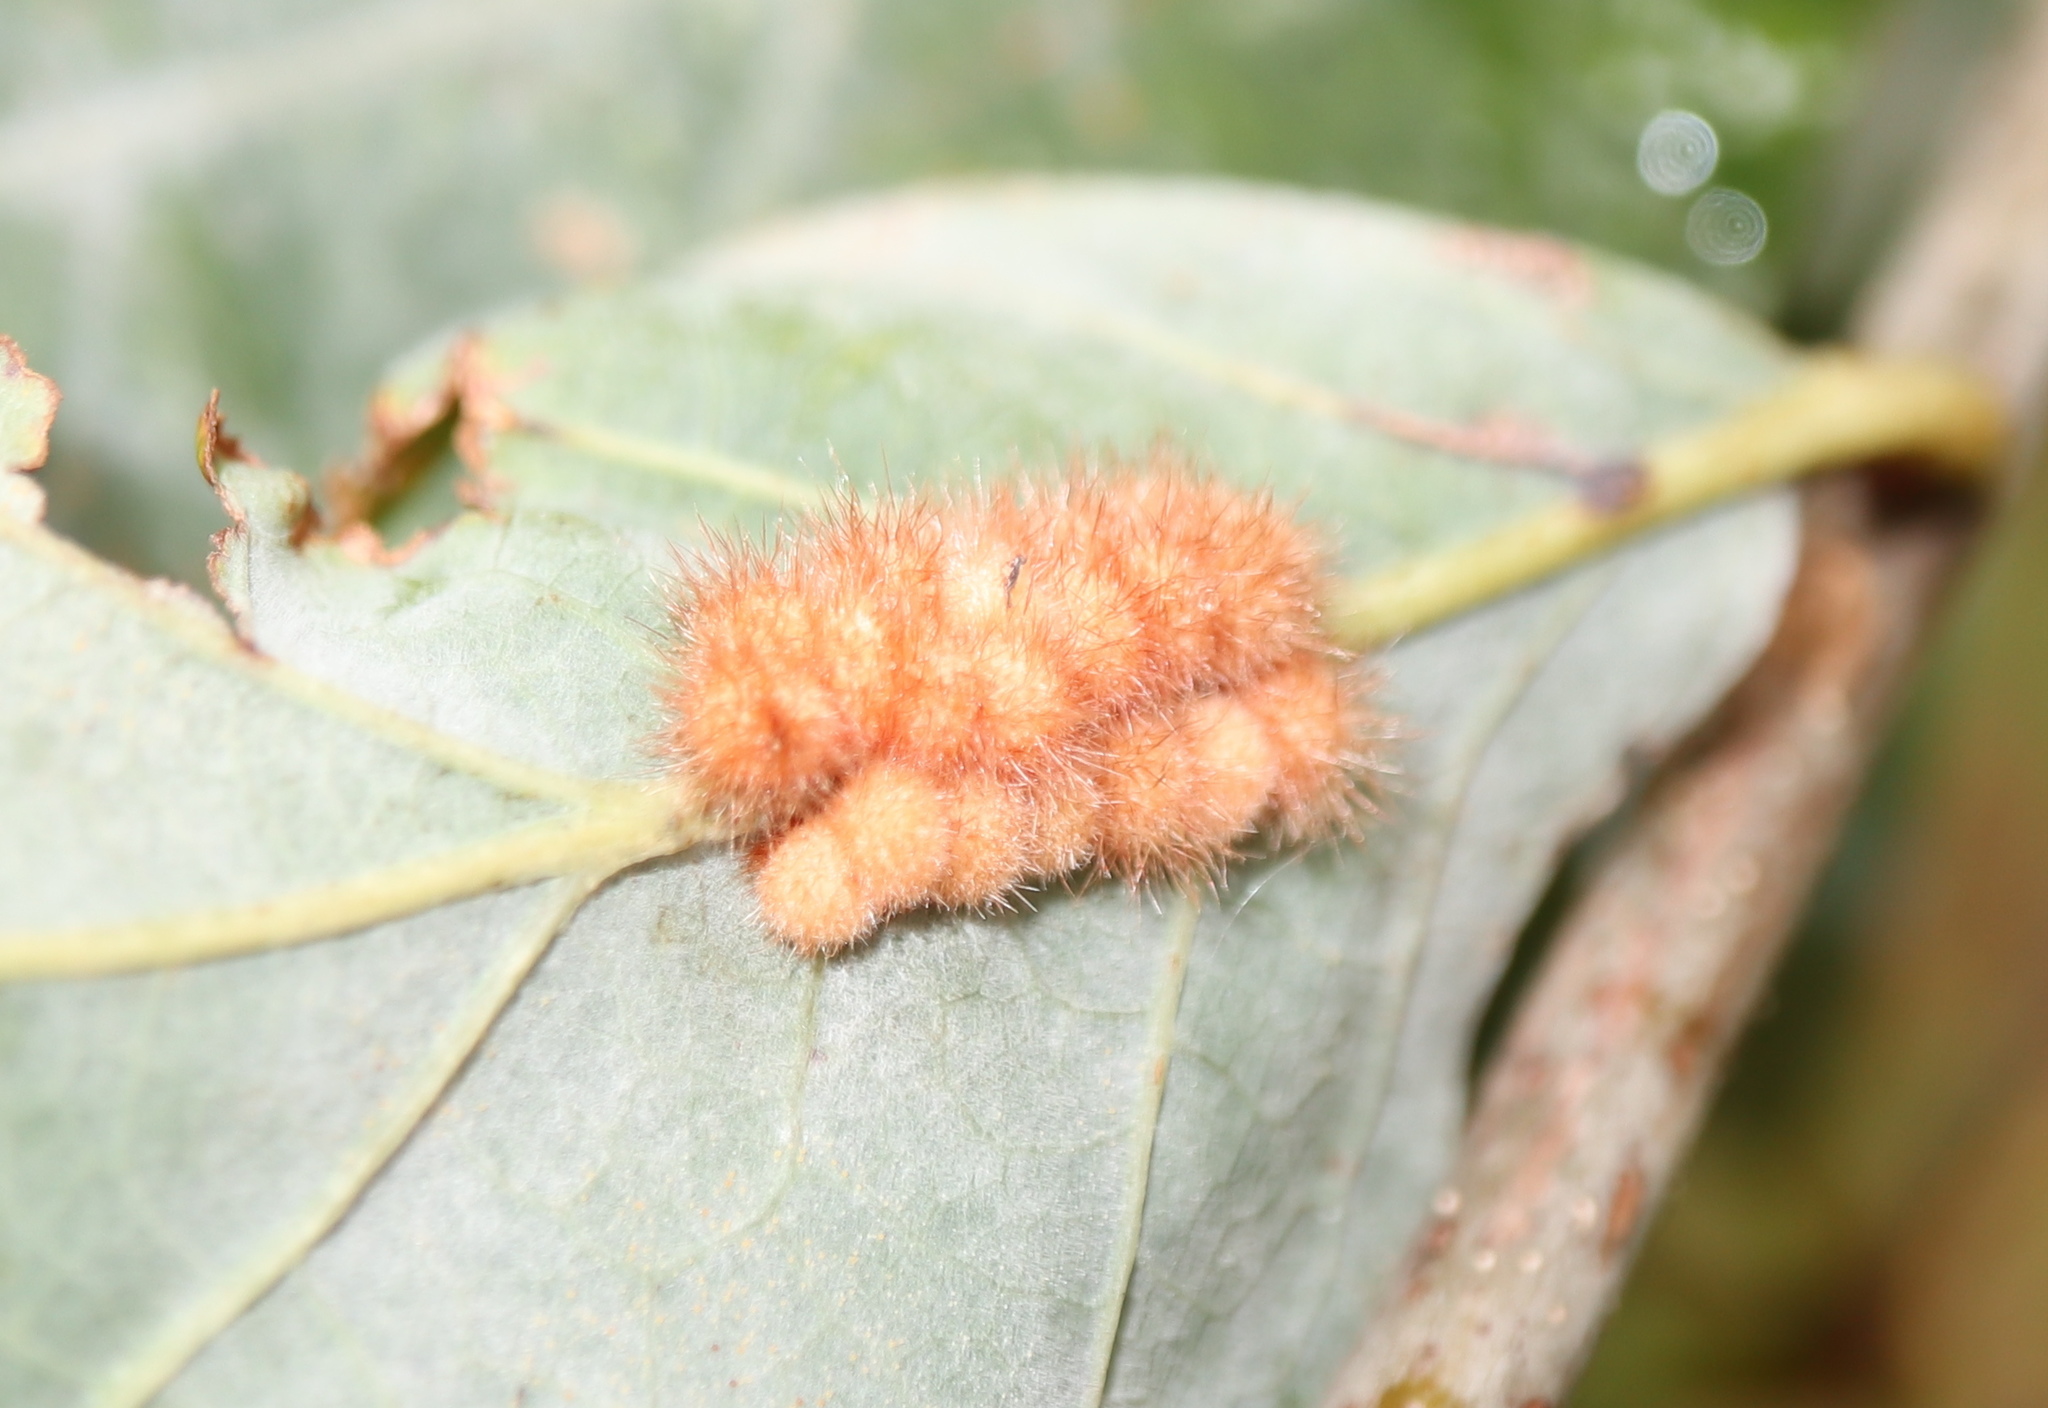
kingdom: Animalia
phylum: Arthropoda
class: Insecta
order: Hymenoptera
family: Cynipidae
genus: Andricus
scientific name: Andricus
